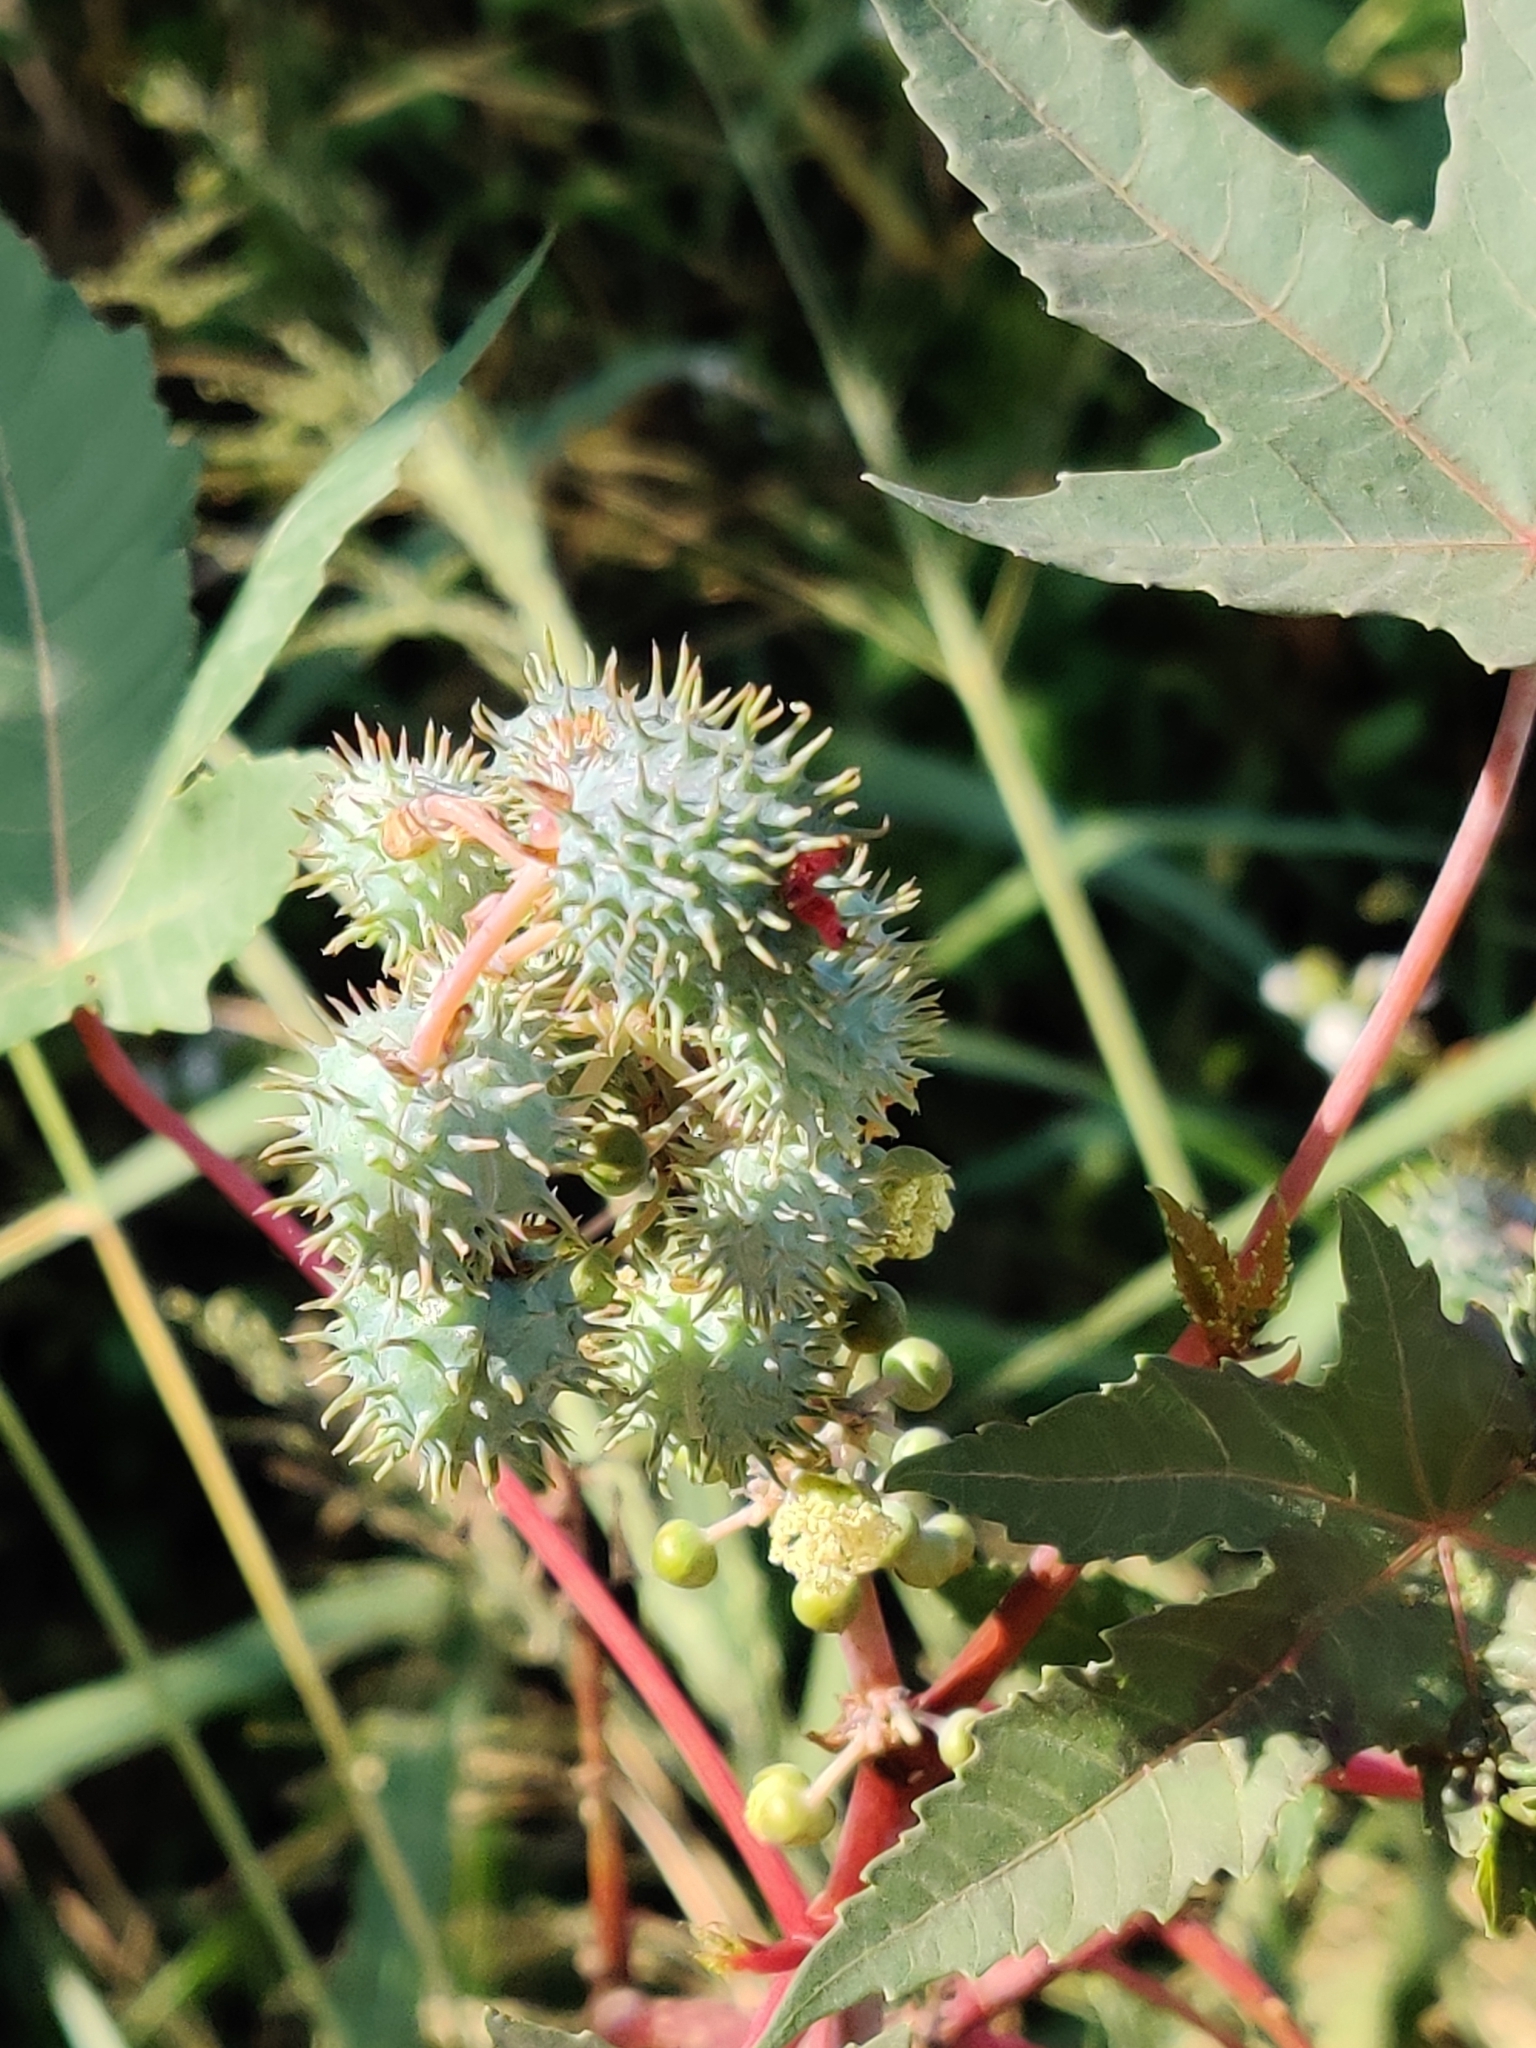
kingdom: Plantae
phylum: Tracheophyta
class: Magnoliopsida
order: Malpighiales
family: Euphorbiaceae
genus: Ricinus
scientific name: Ricinus communis
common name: Castor-oil-plant
